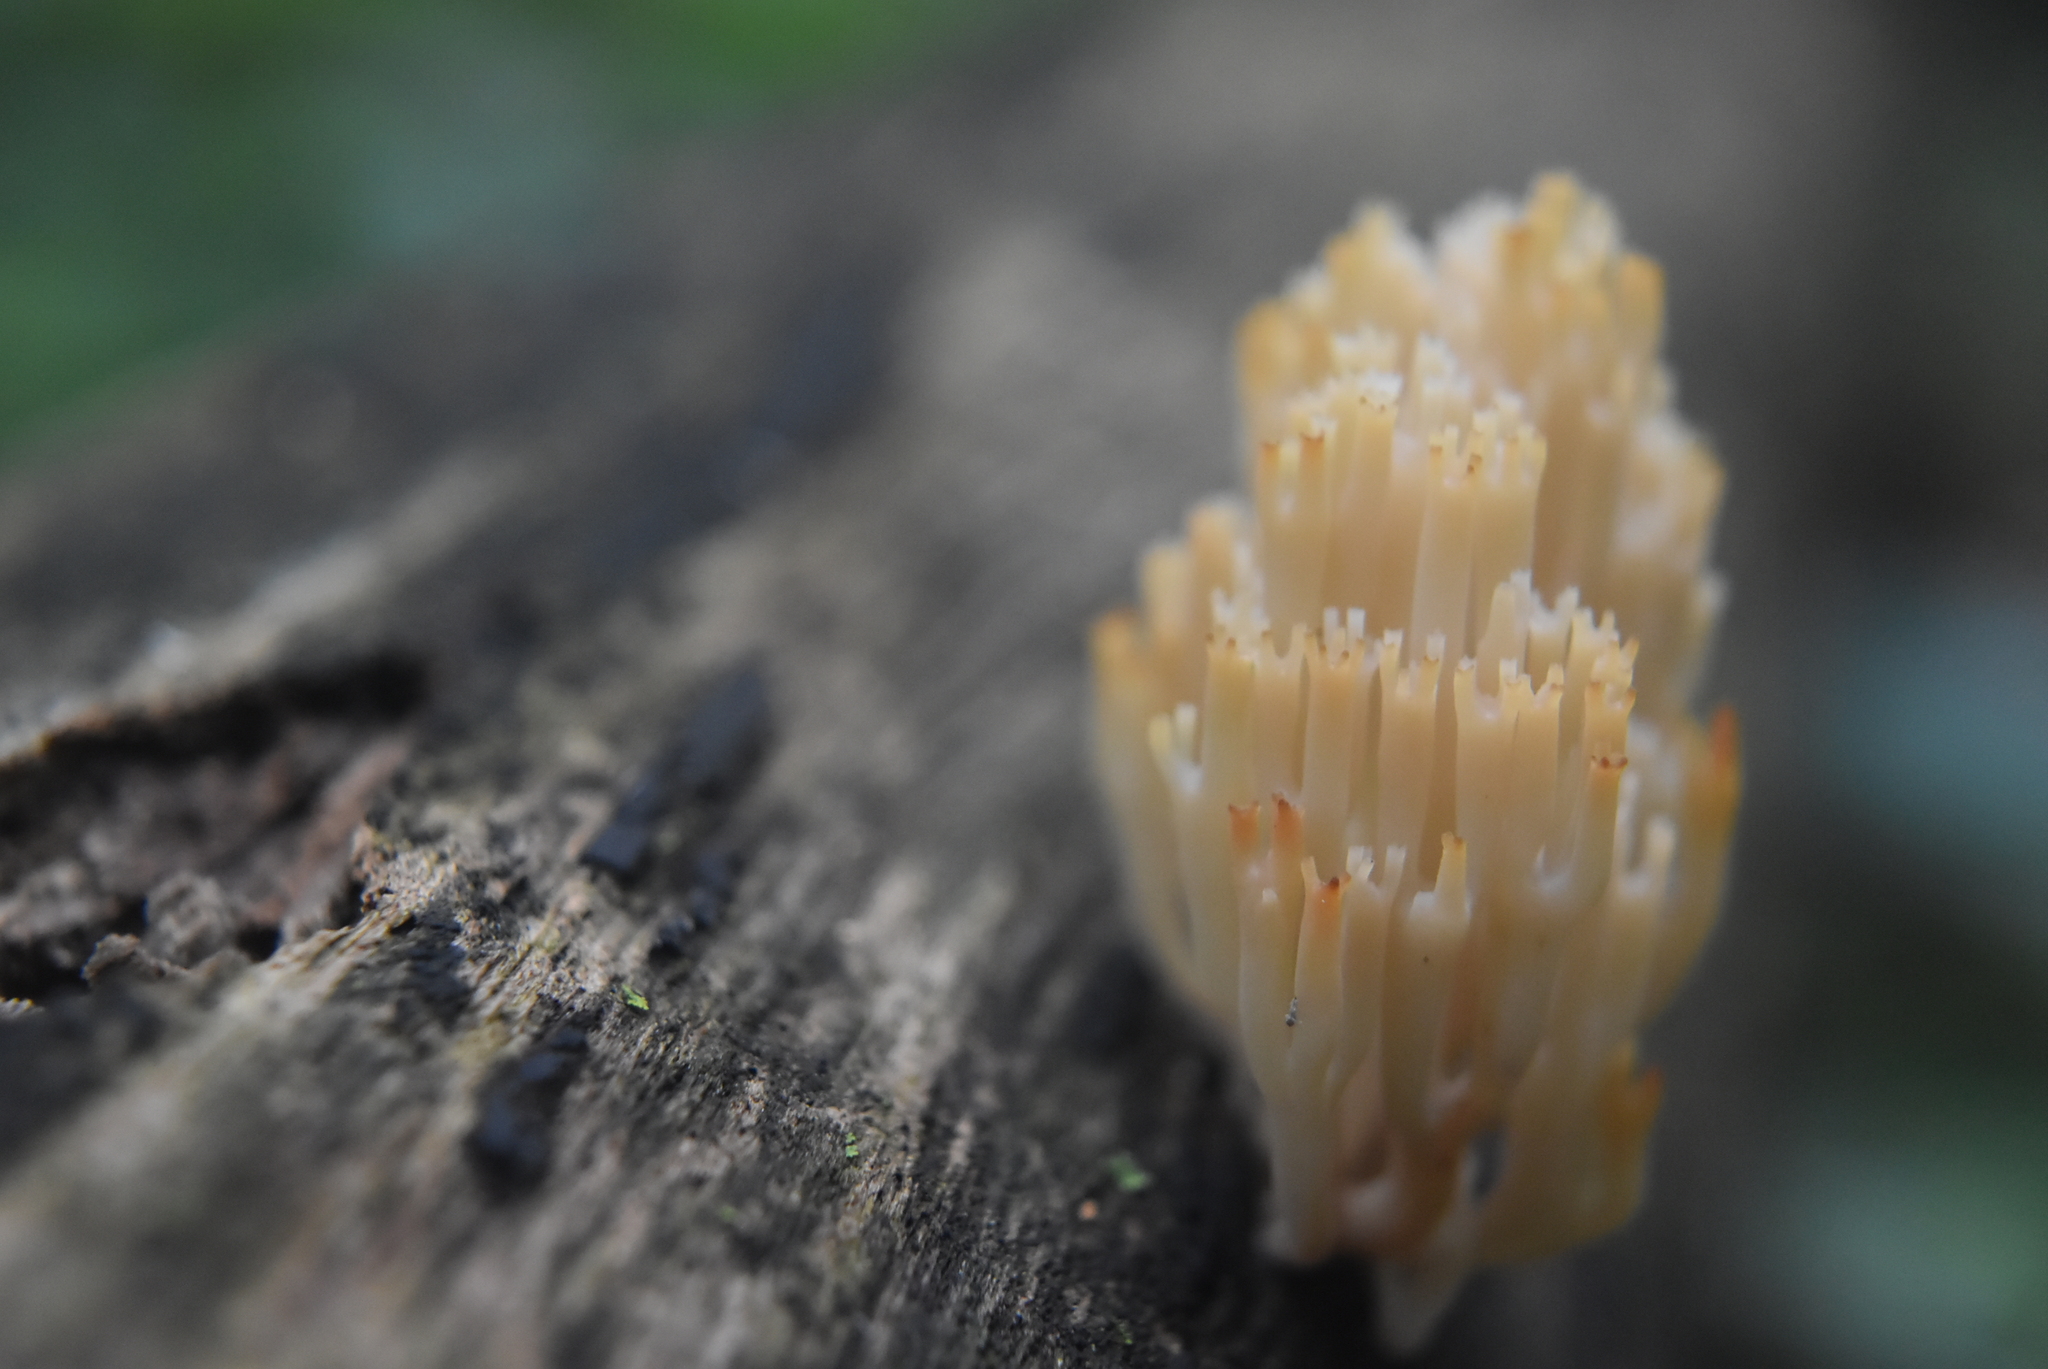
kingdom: Fungi
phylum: Basidiomycota
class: Agaricomycetes
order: Russulales
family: Auriscalpiaceae
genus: Artomyces
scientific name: Artomyces pyxidatus
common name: Crown-tipped coral fungus
